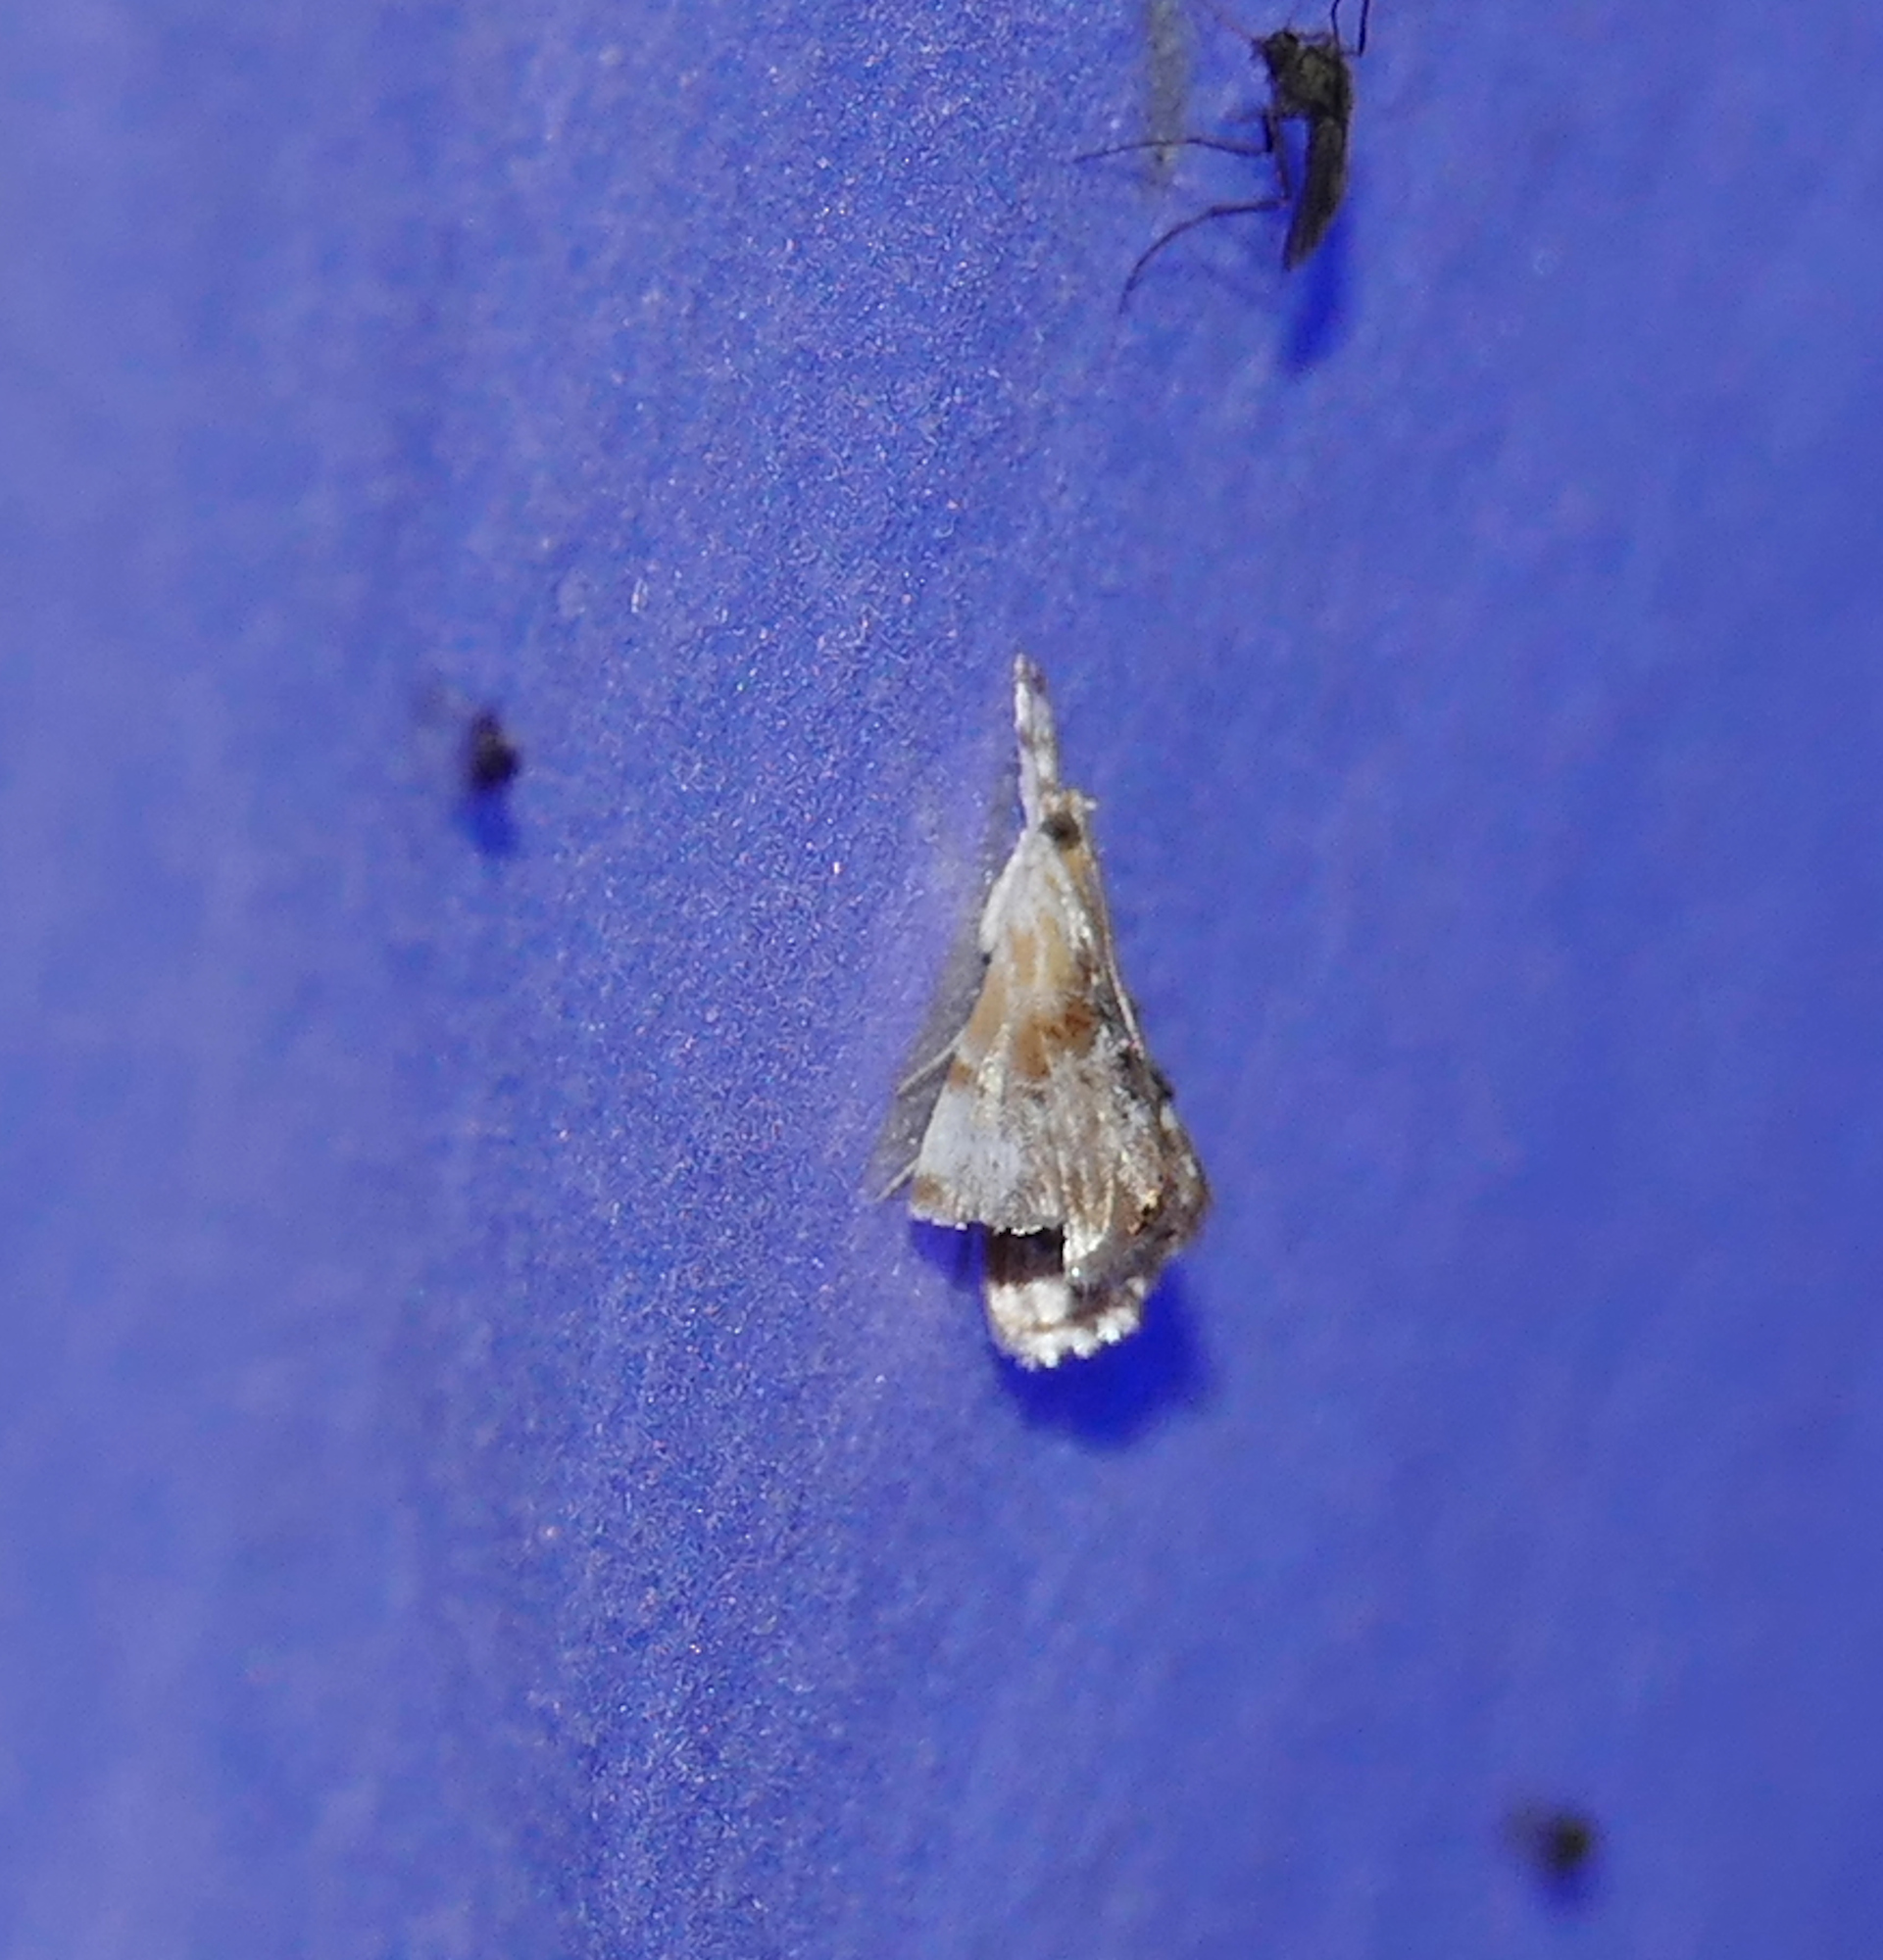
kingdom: Animalia
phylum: Arthropoda
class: Insecta
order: Lepidoptera
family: Crambidae
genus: Dicymolomia
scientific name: Dicymolomia julianalis
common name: Julia's dicymolomia moth
